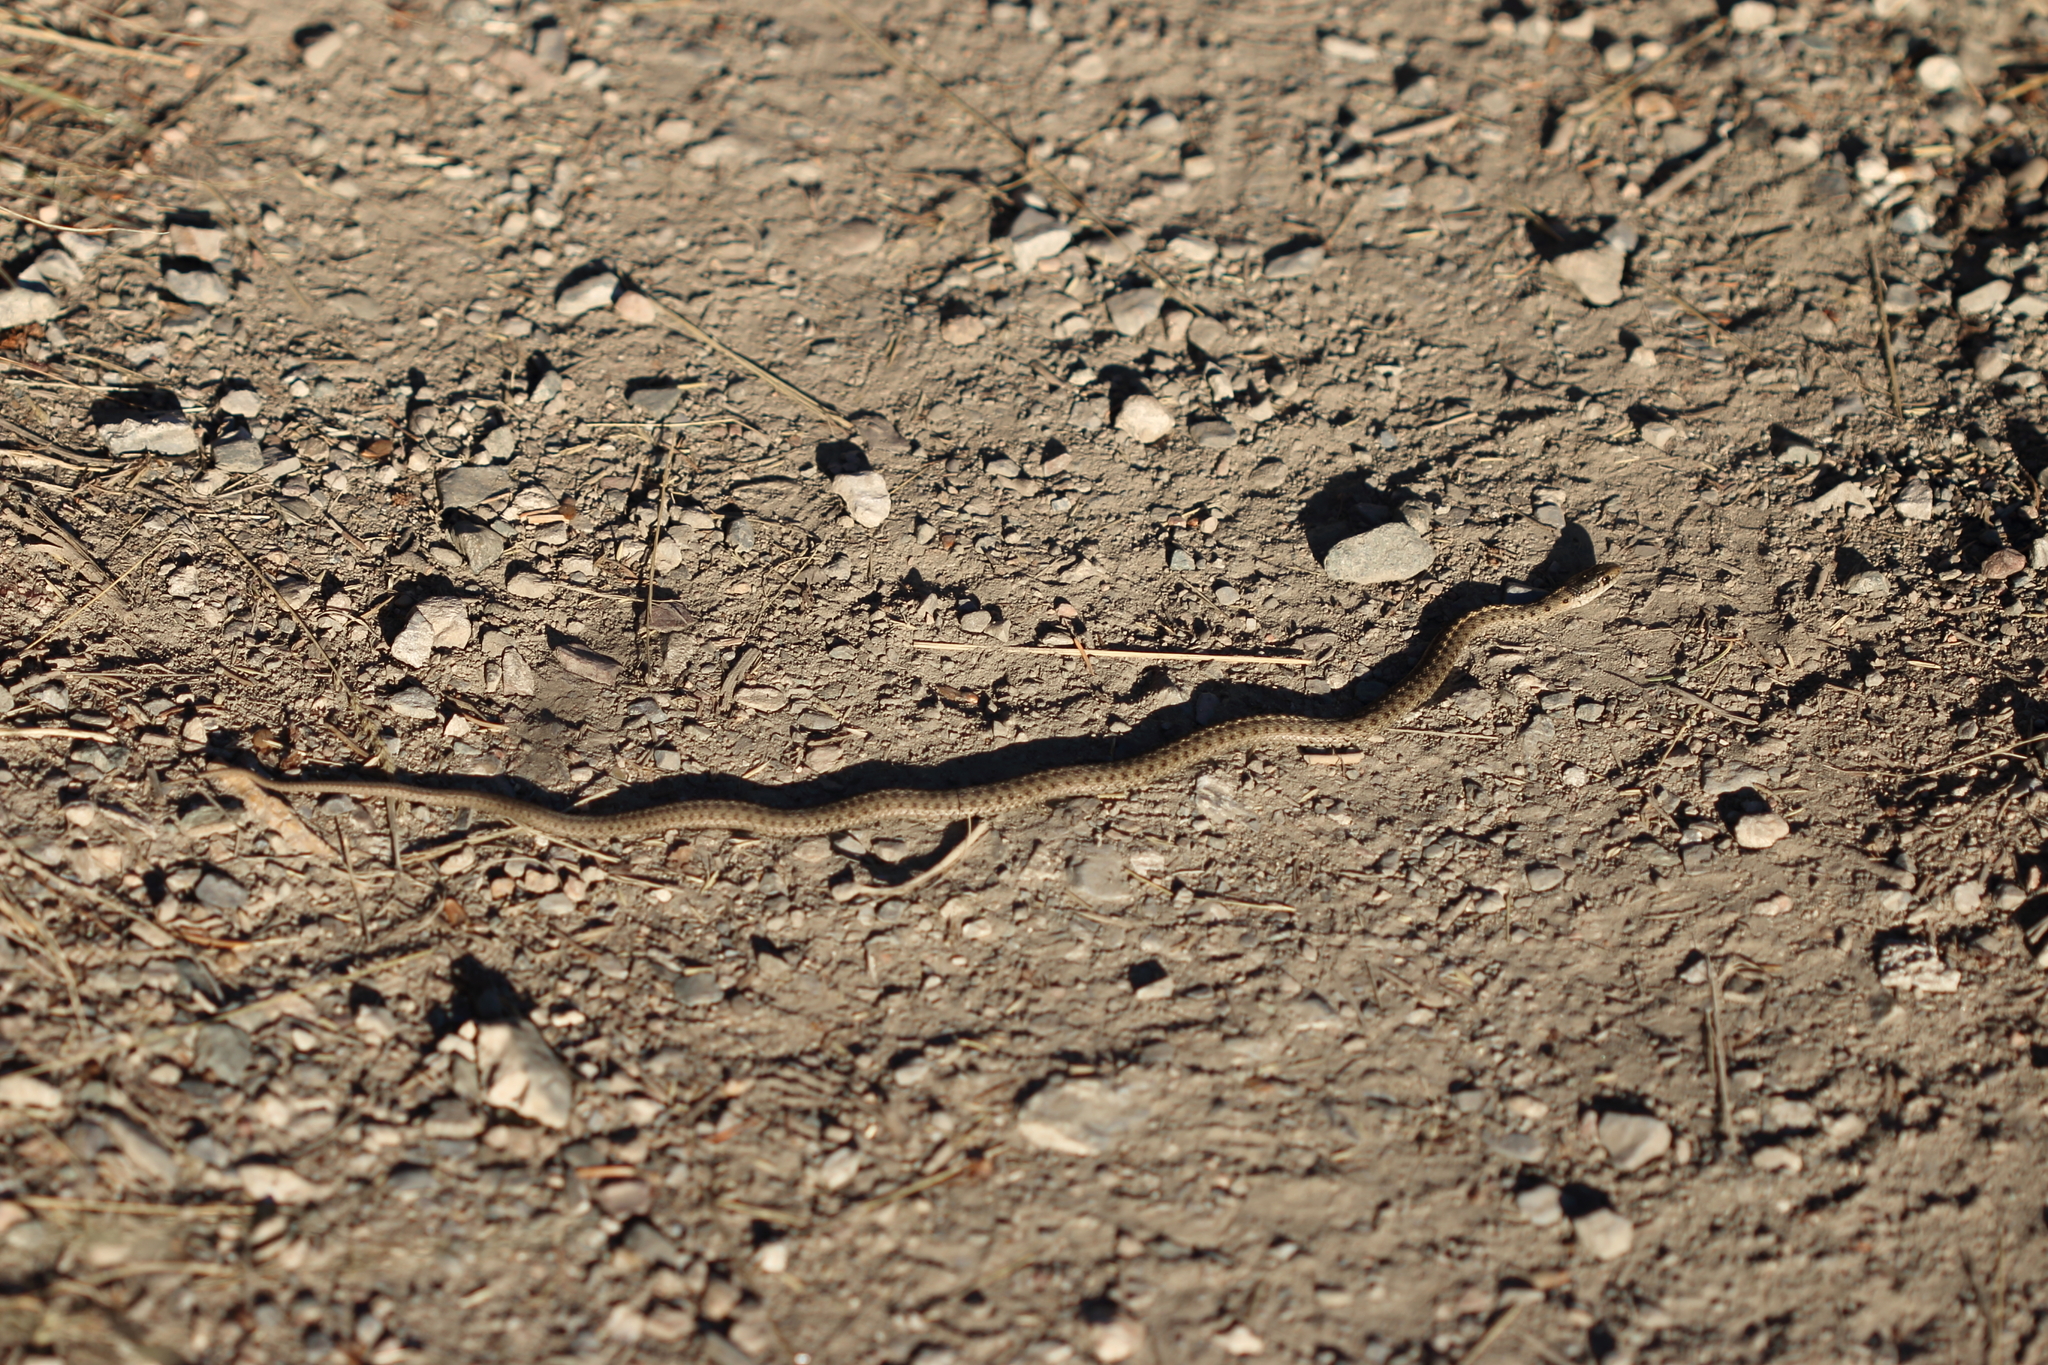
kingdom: Animalia
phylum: Chordata
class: Squamata
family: Colubridae
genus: Thamnophis
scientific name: Thamnophis elegans
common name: Western terrestrial garter snake
